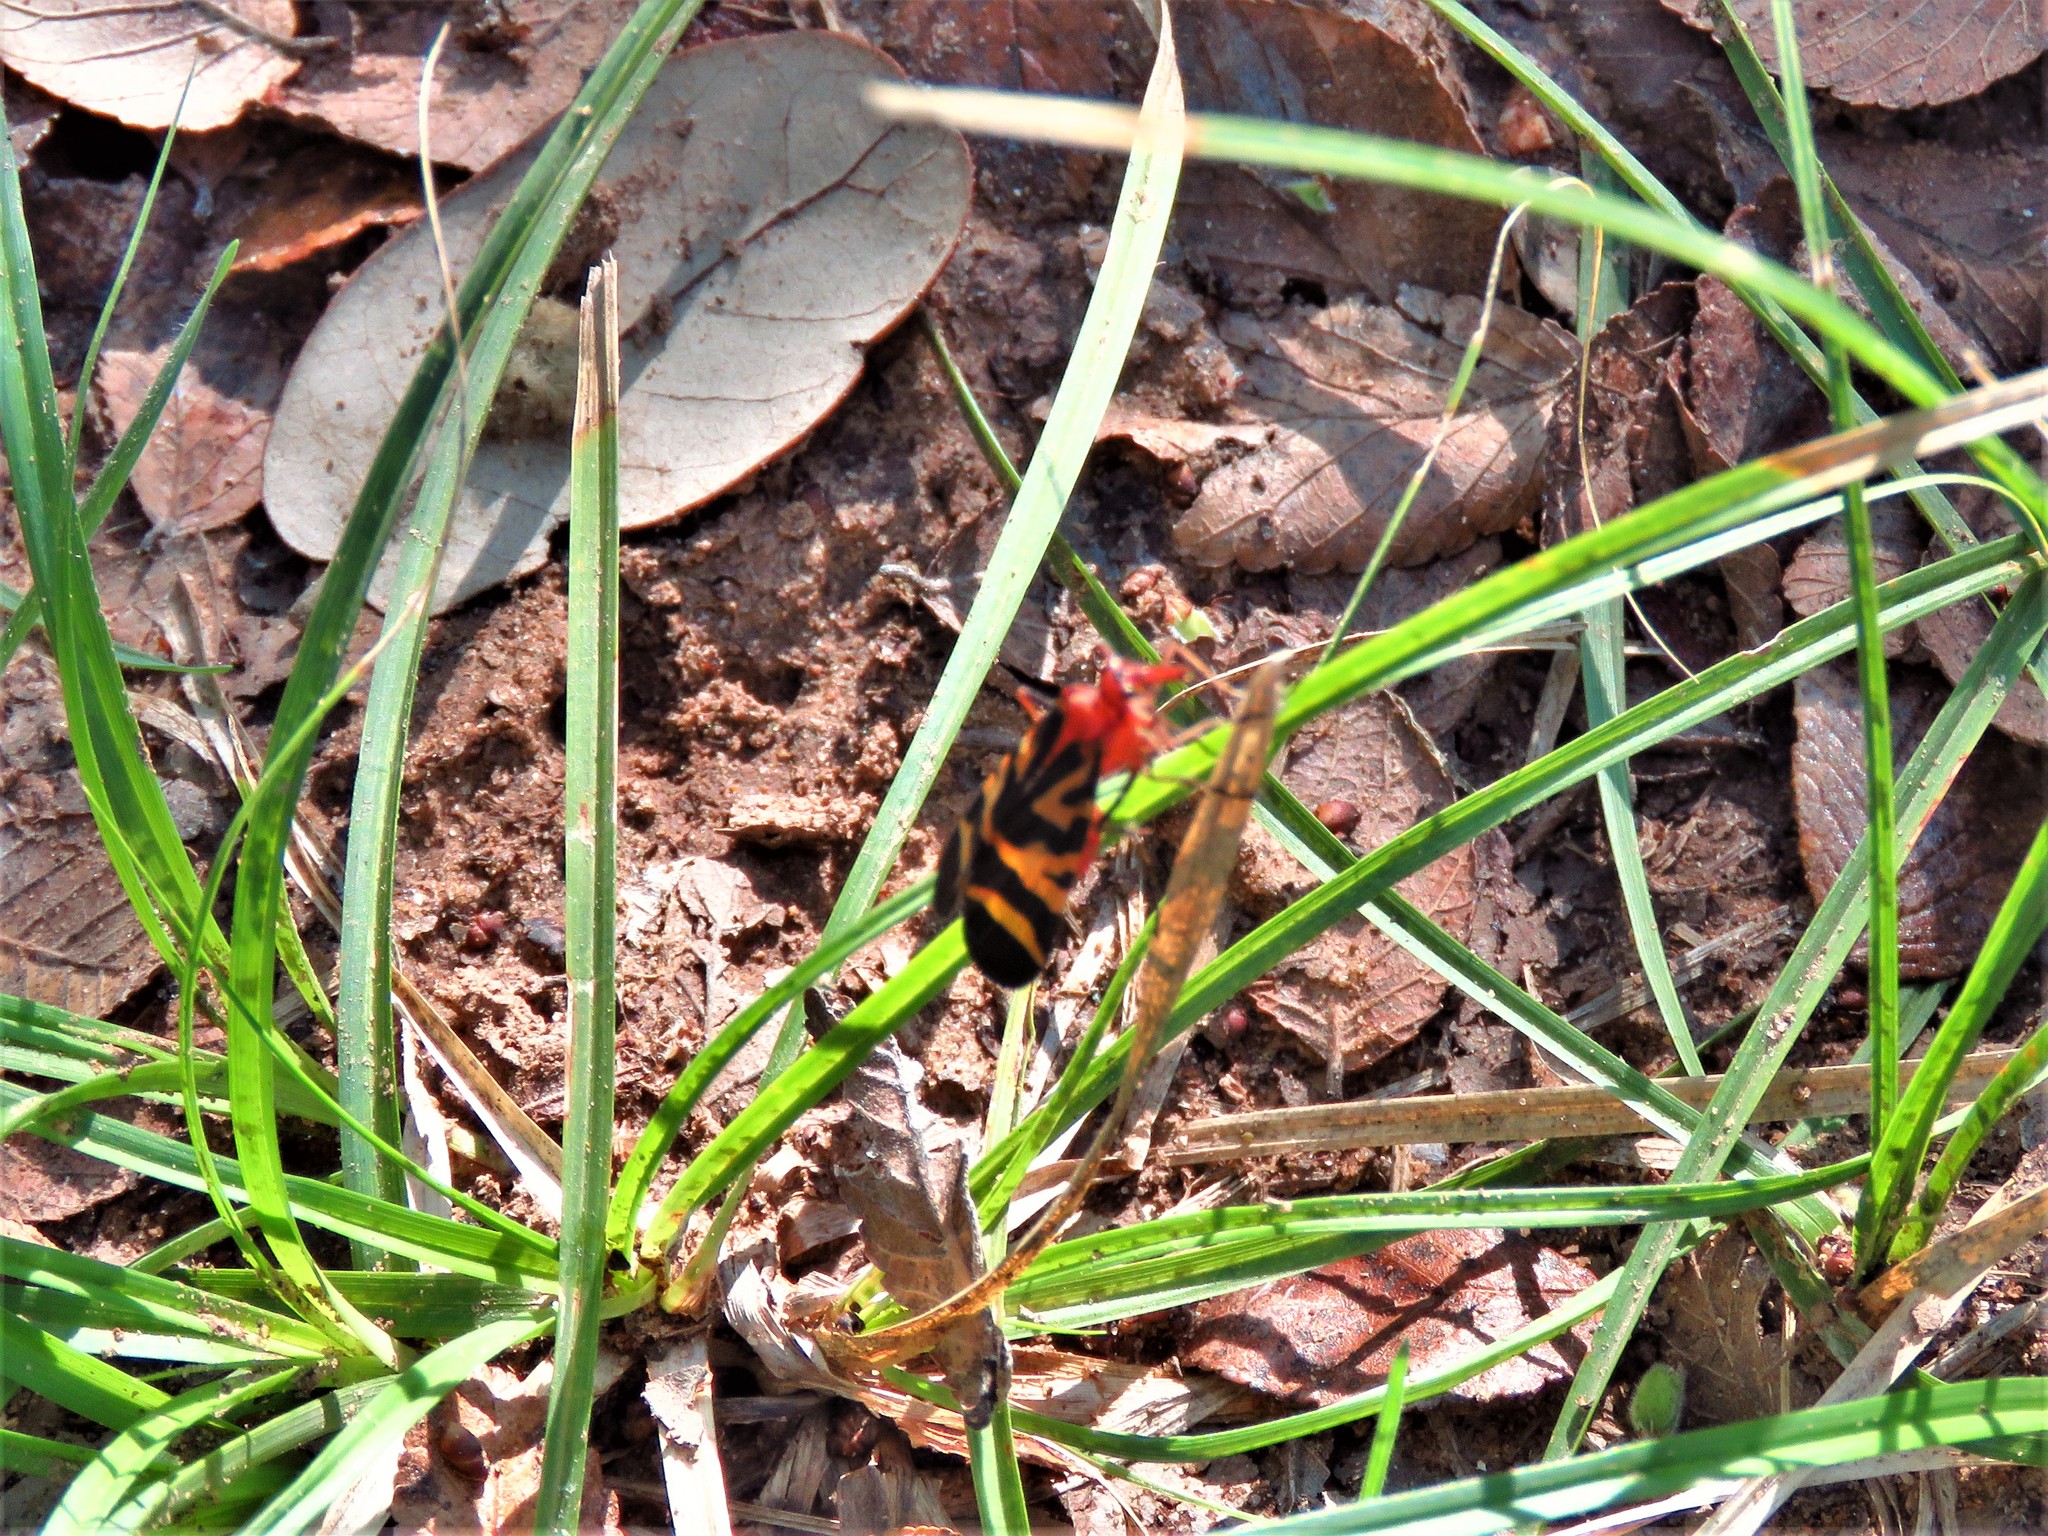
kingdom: Animalia
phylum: Arthropoda
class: Insecta
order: Mecoptera
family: Panorpidae
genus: Panorpa
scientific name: Panorpa nuptialis
